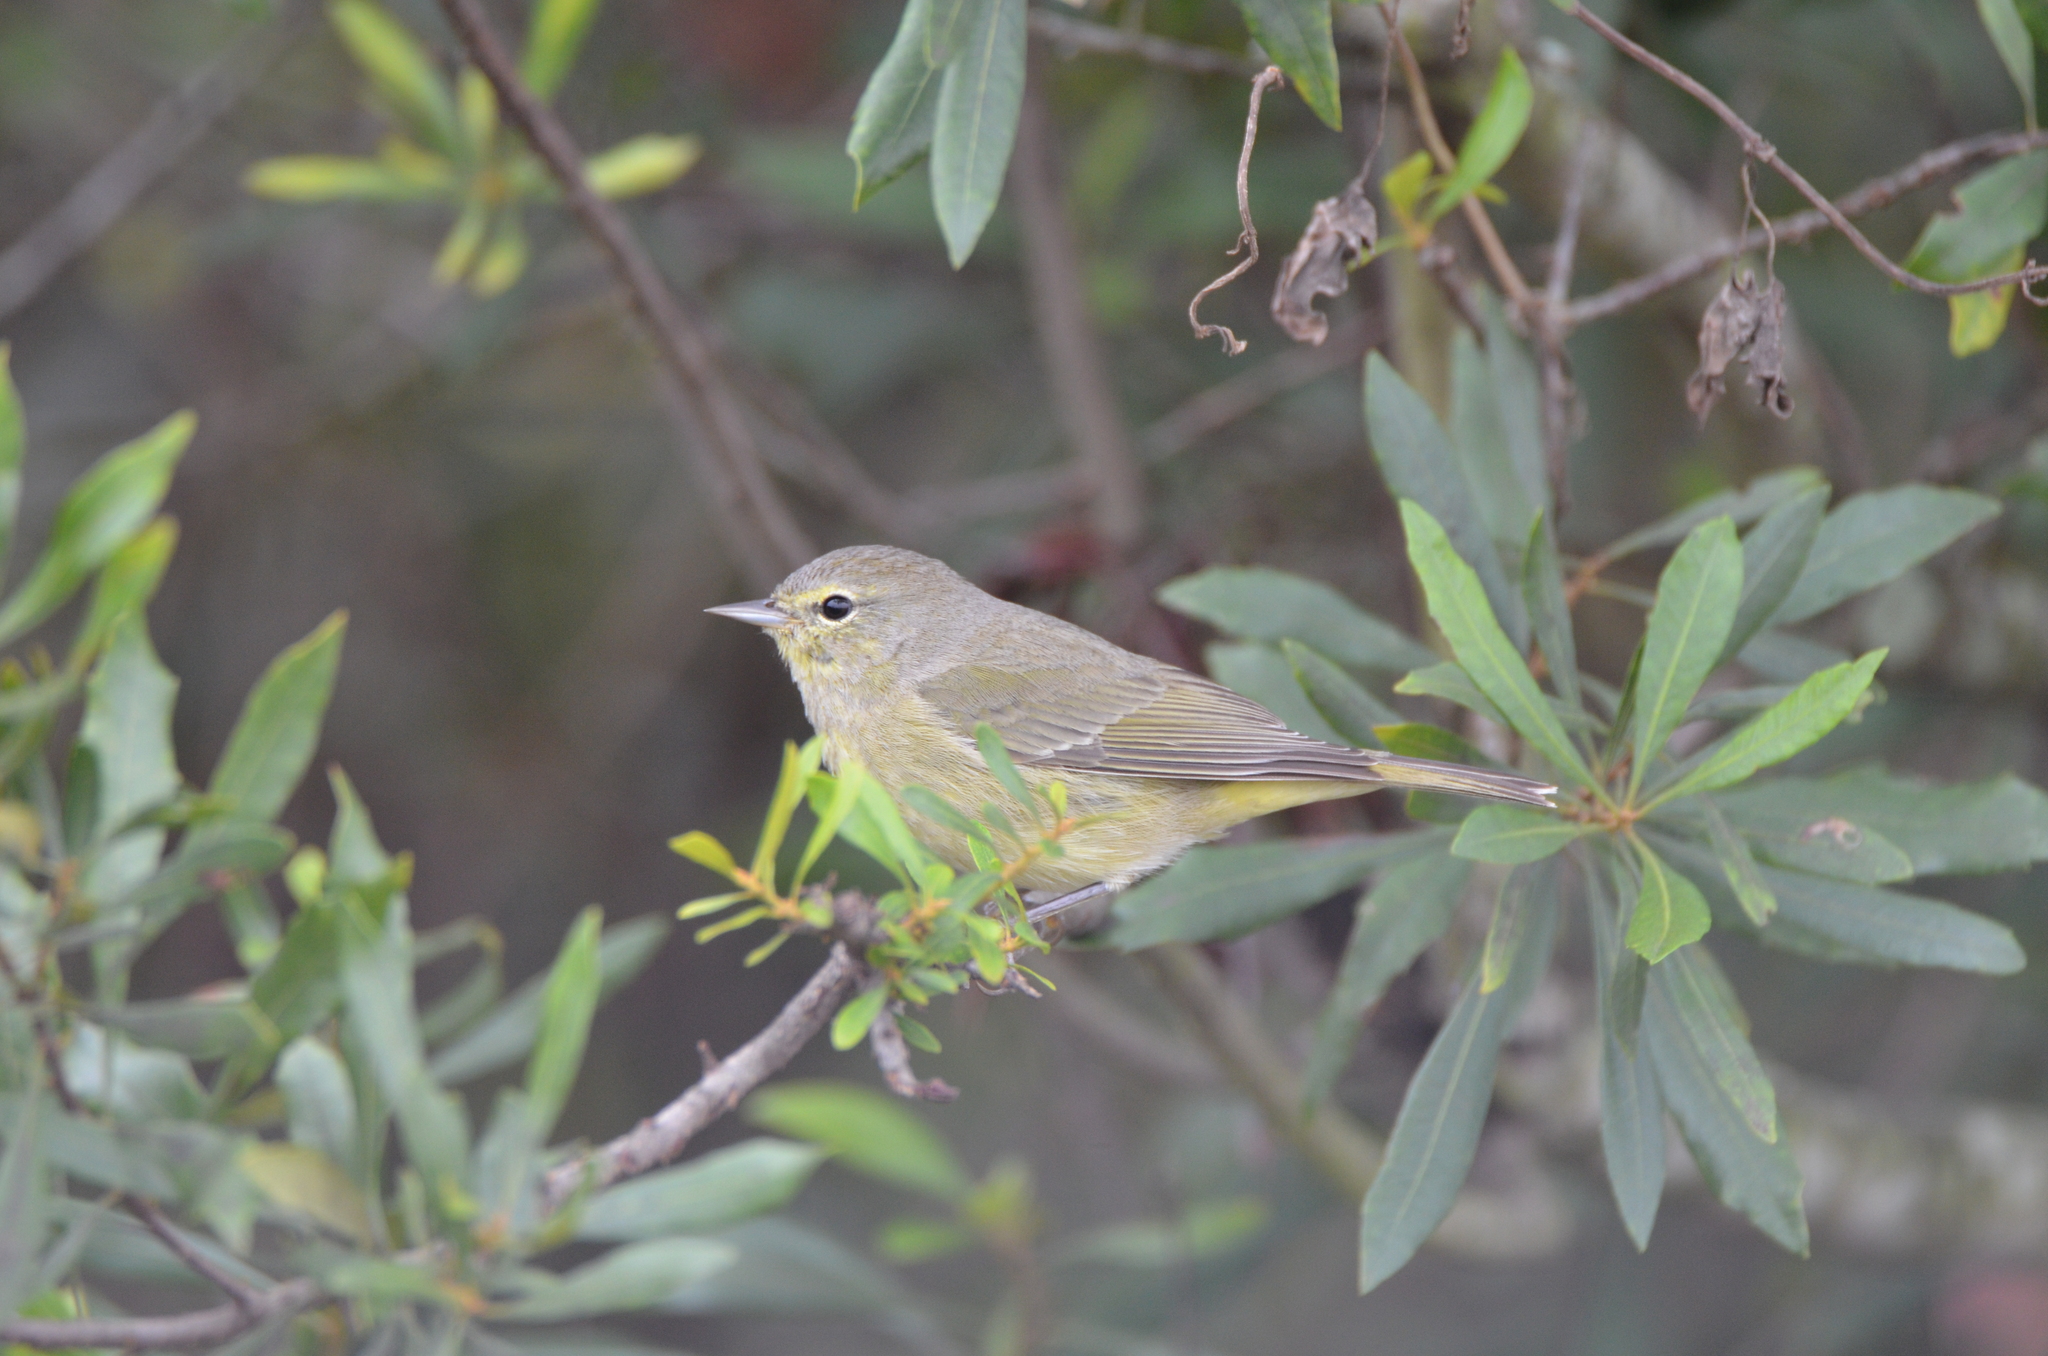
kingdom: Animalia
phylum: Chordata
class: Aves
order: Passeriformes
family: Parulidae
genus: Leiothlypis
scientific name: Leiothlypis celata
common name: Orange-crowned warbler
